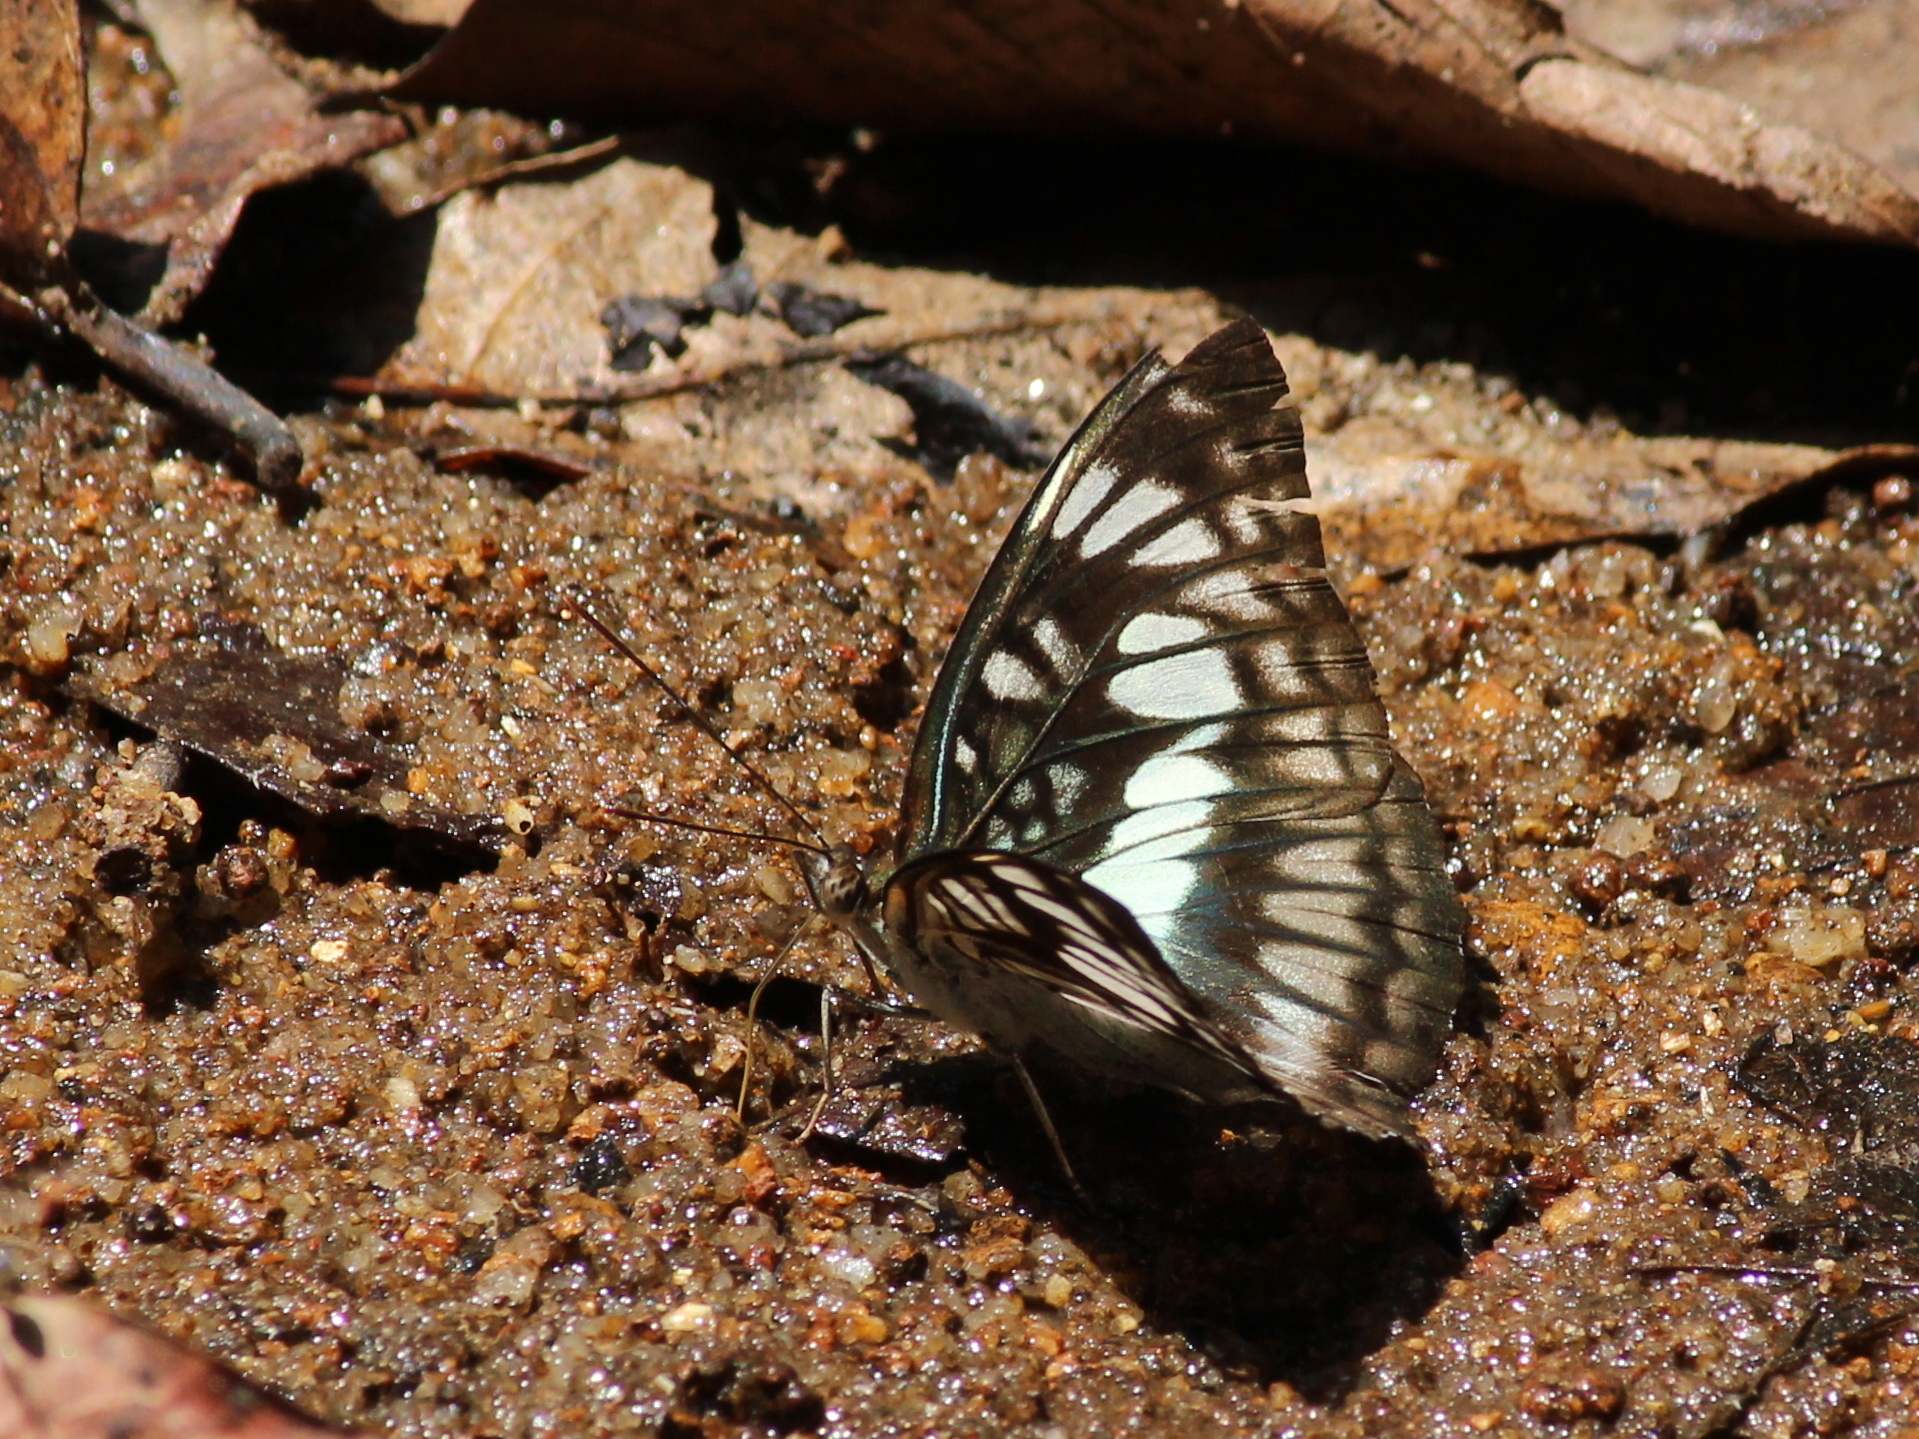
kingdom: Animalia
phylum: Arthropoda
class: Insecta
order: Lepidoptera
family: Nymphalidae
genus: Parathyma
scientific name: Parathyma ranga
